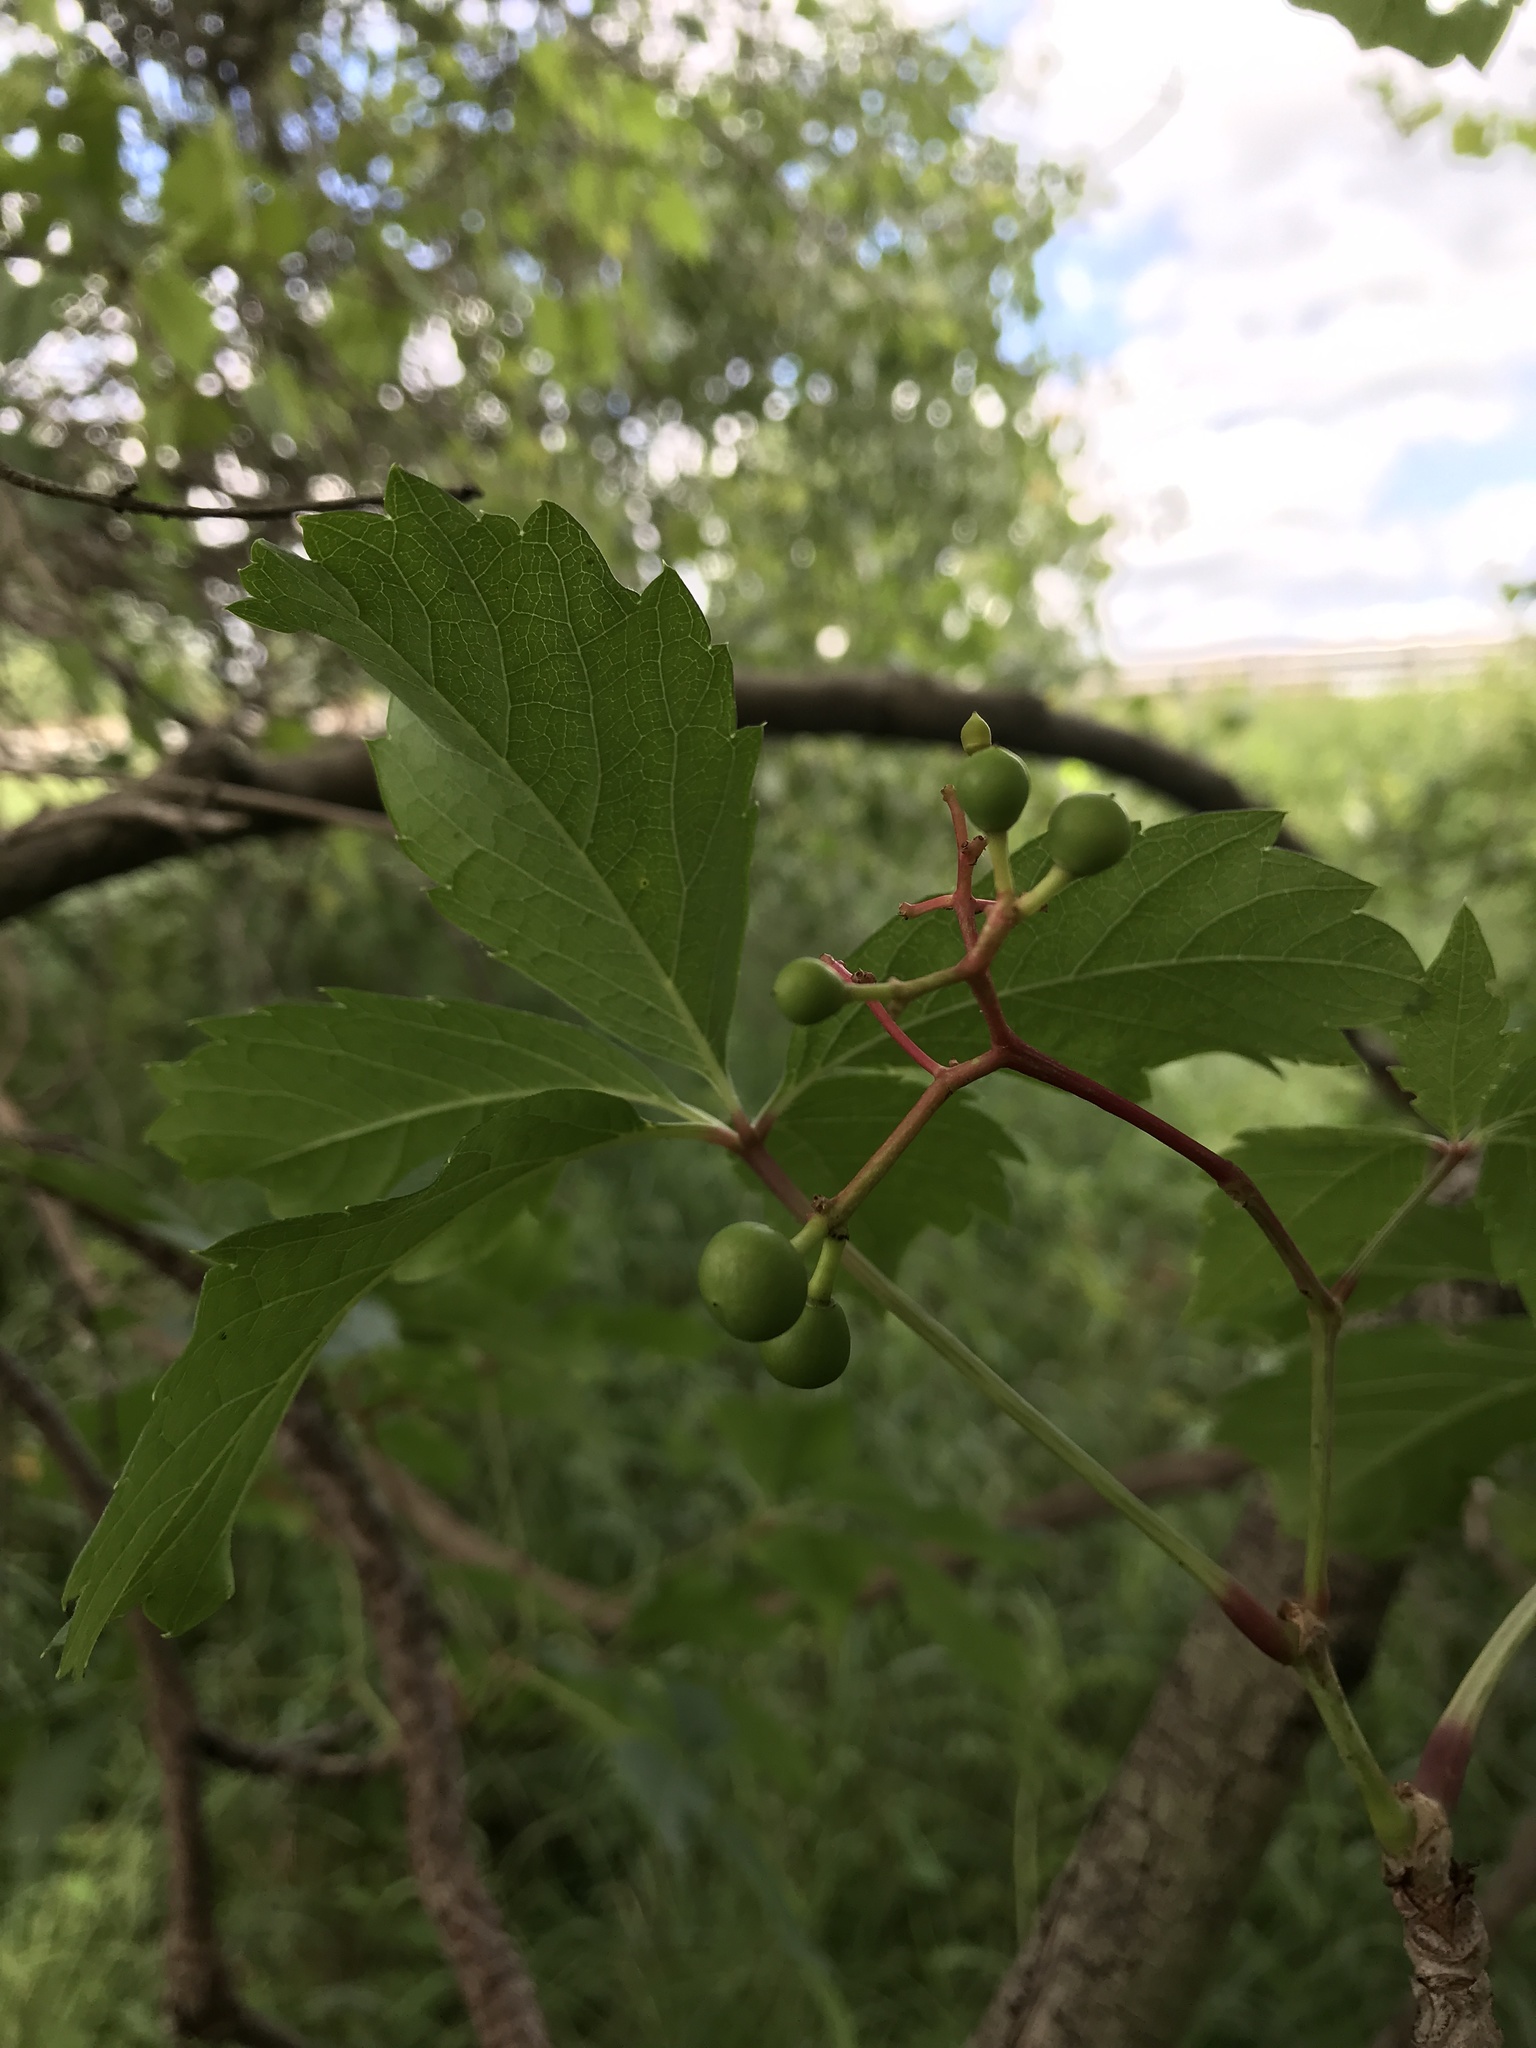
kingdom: Plantae
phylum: Tracheophyta
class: Magnoliopsida
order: Vitales
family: Vitaceae
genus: Parthenocissus
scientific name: Parthenocissus quinquefolia
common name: Virginia-creeper
